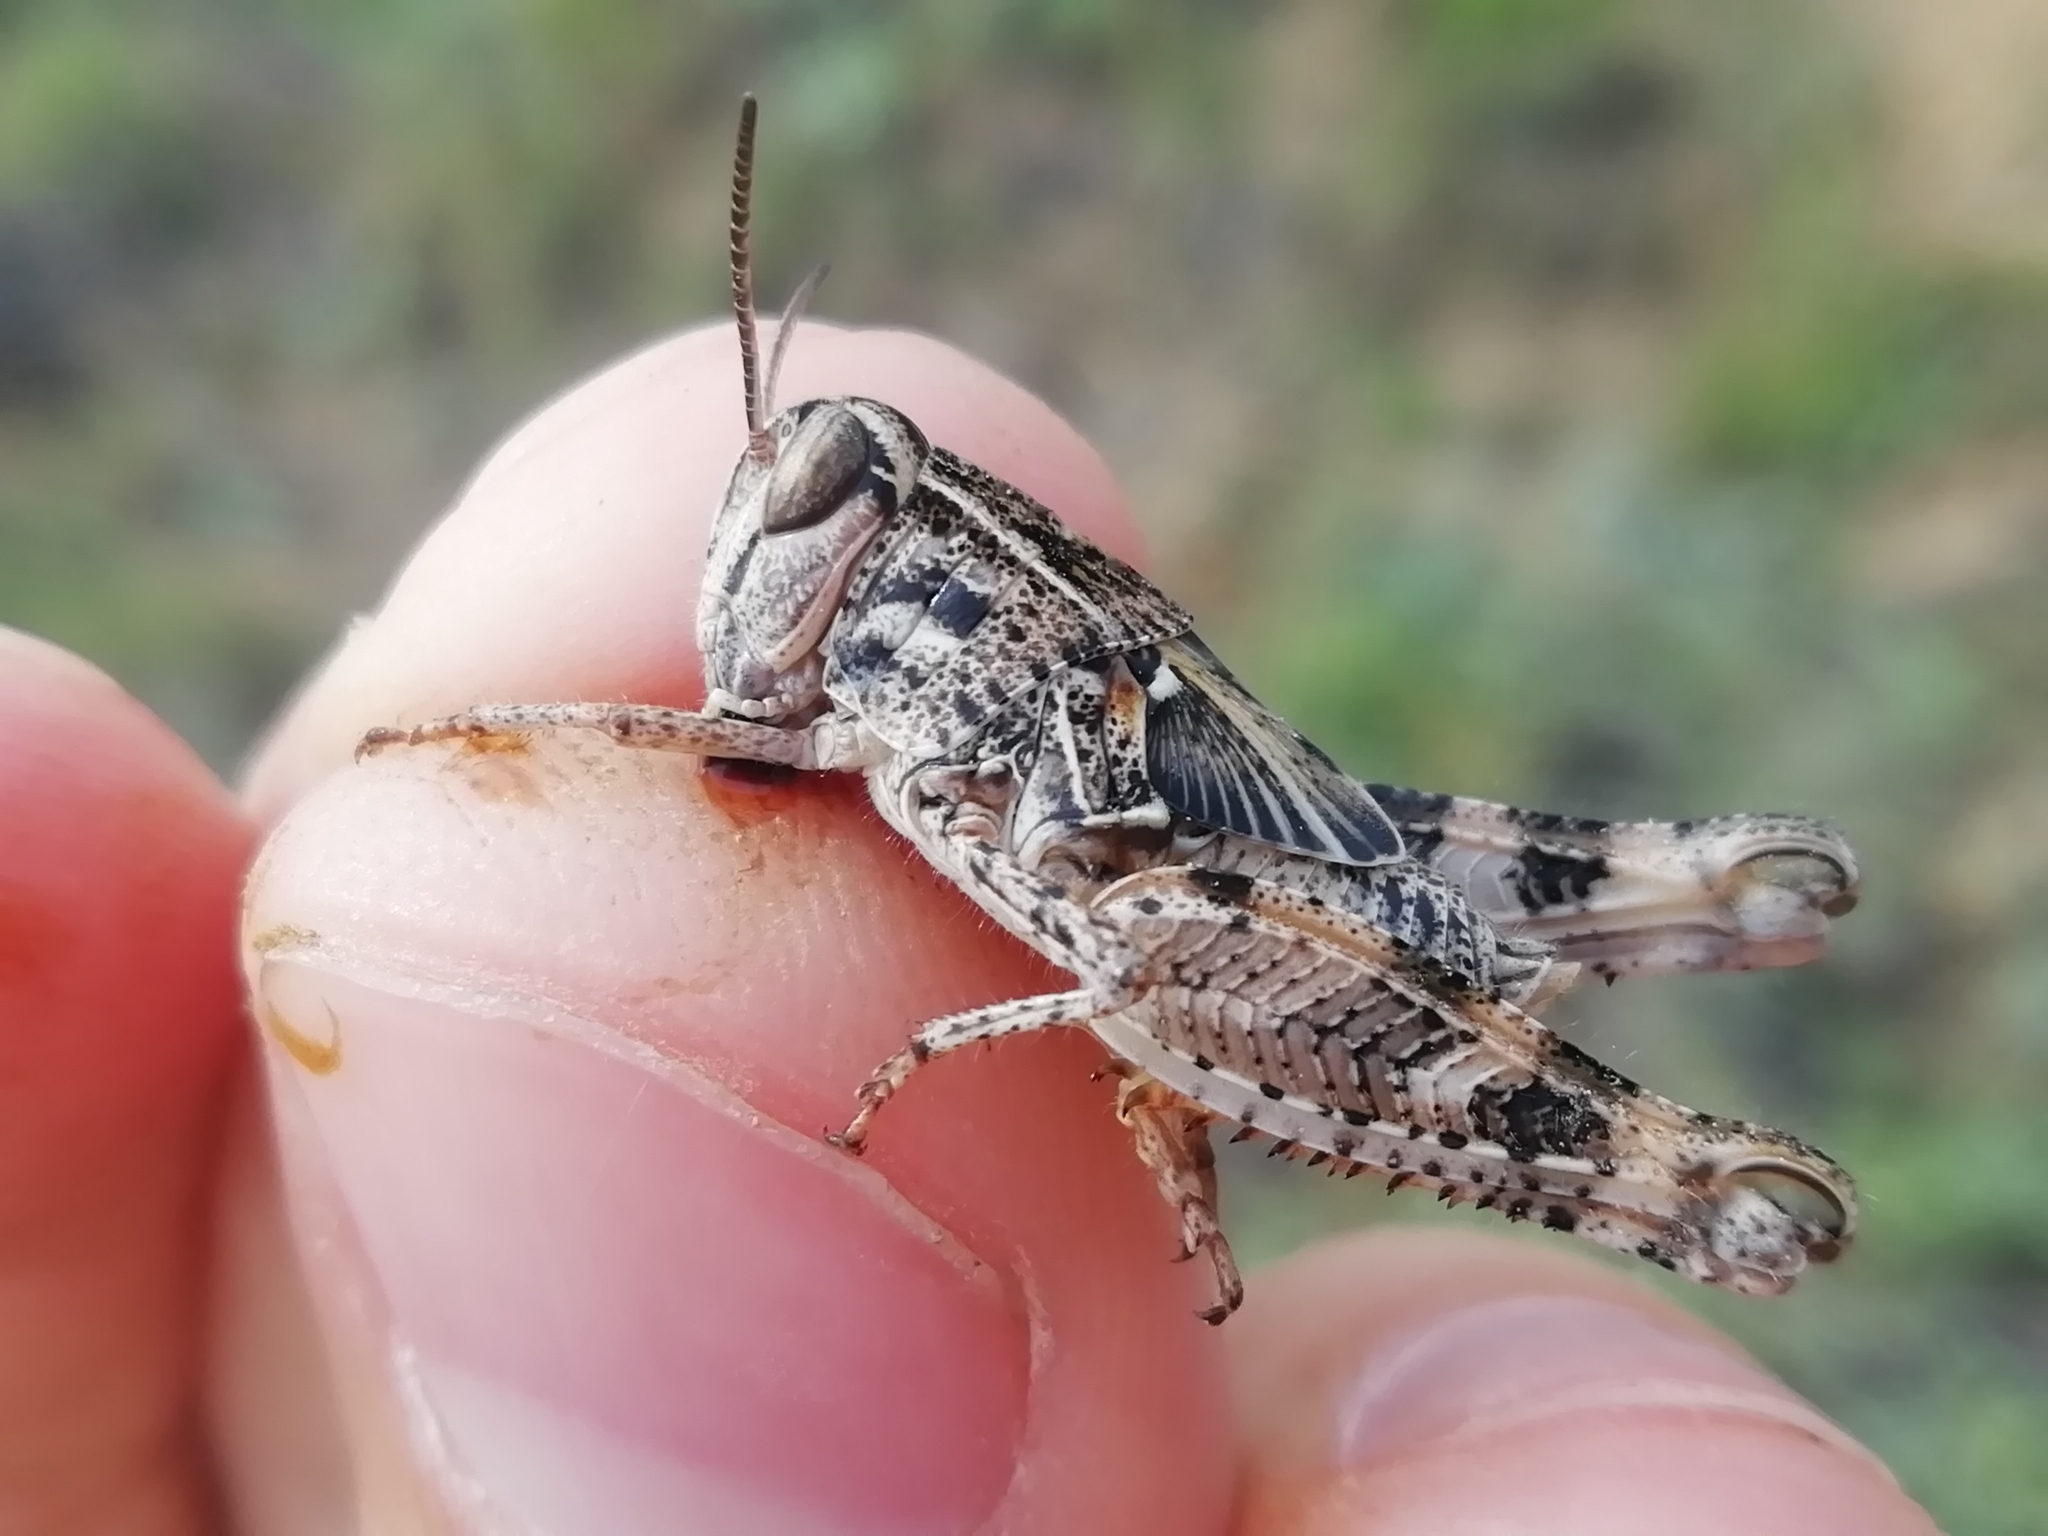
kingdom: Animalia
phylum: Arthropoda
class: Insecta
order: Orthoptera
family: Acrididae
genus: Calliptamus
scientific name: Calliptamus italicus
